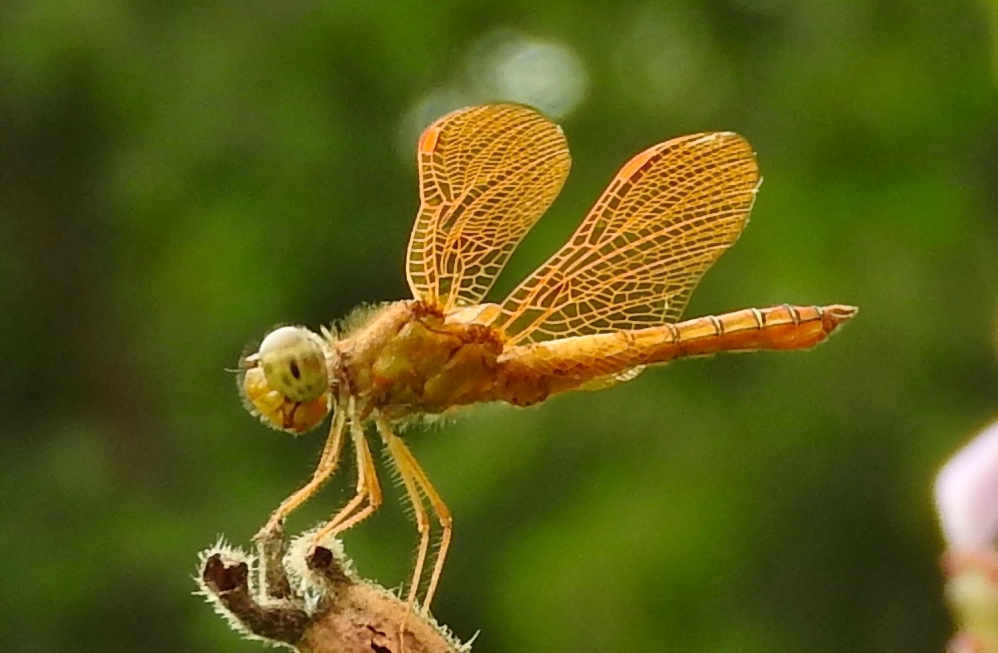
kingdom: Animalia
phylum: Arthropoda
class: Insecta
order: Odonata
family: Libellulidae
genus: Perithemis
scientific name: Perithemis intensa
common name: Mexican amberwing
